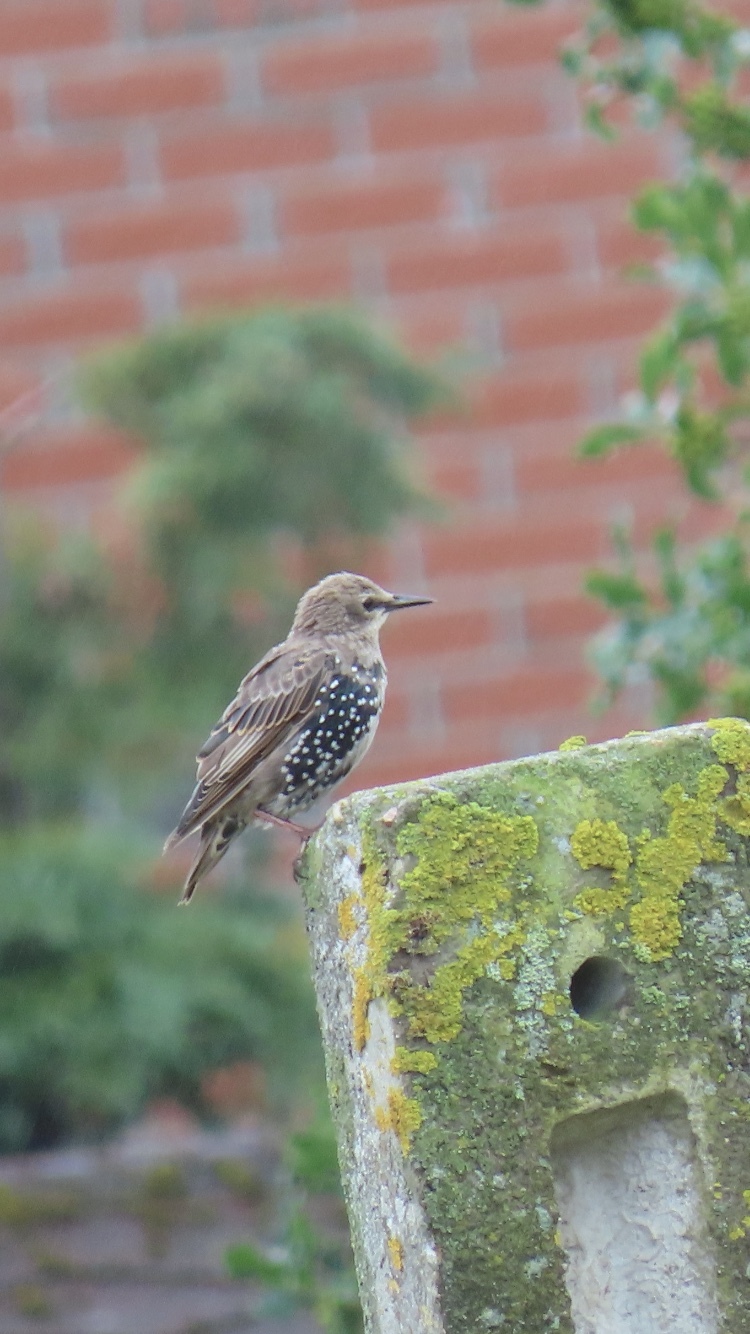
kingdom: Animalia
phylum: Chordata
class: Aves
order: Passeriformes
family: Sturnidae
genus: Sturnus
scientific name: Sturnus vulgaris
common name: Common starling
